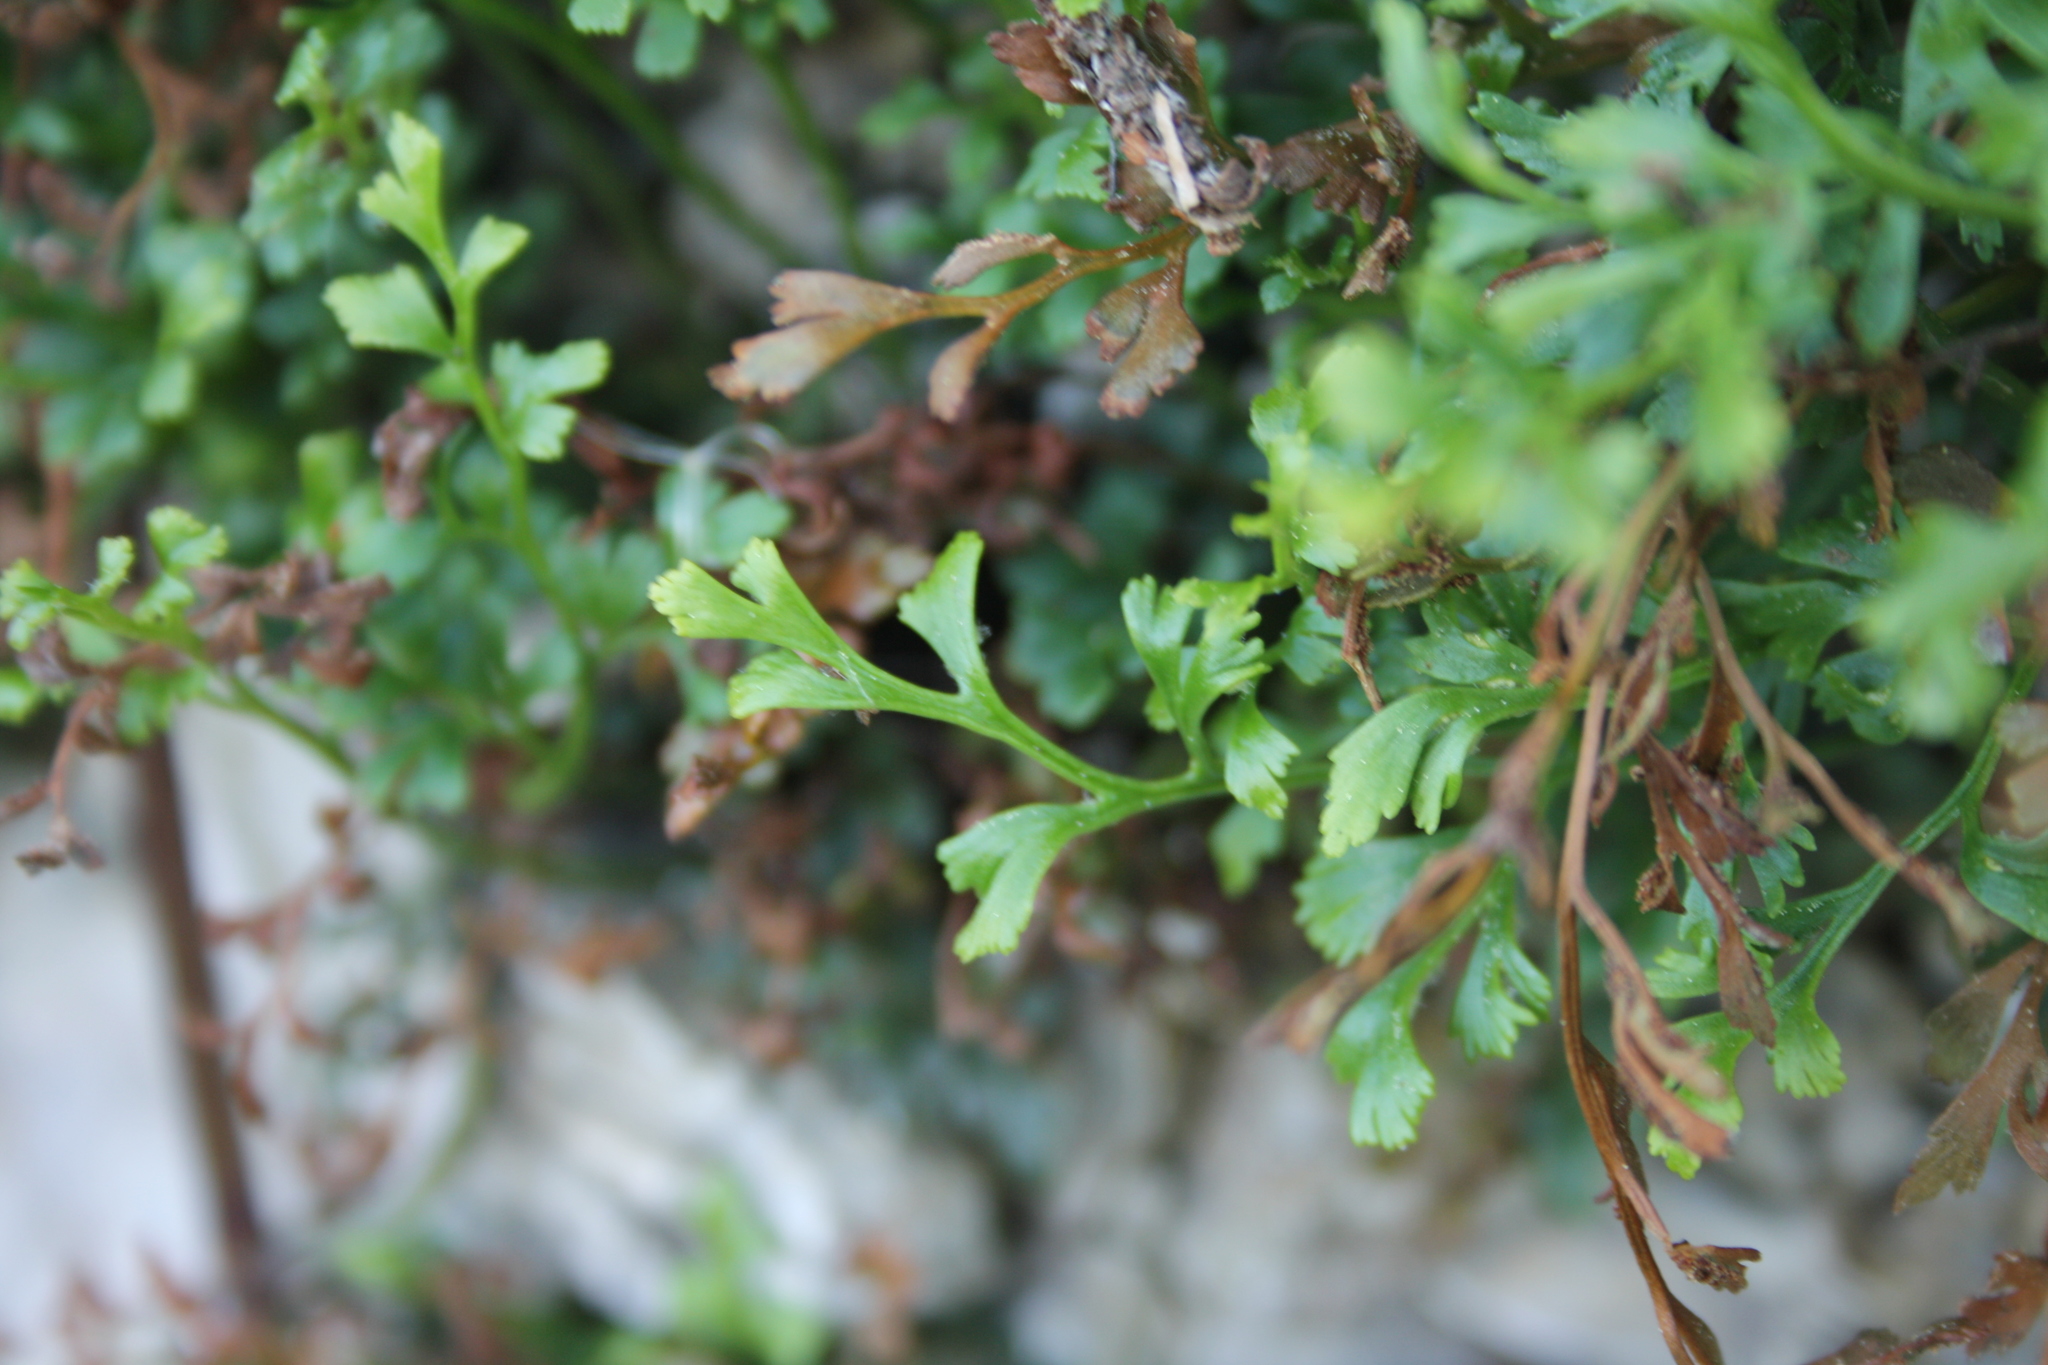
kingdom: Plantae
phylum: Tracheophyta
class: Polypodiopsida
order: Polypodiales
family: Aspleniaceae
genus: Asplenium
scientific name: Asplenium ruta-muraria
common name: Wall-rue
